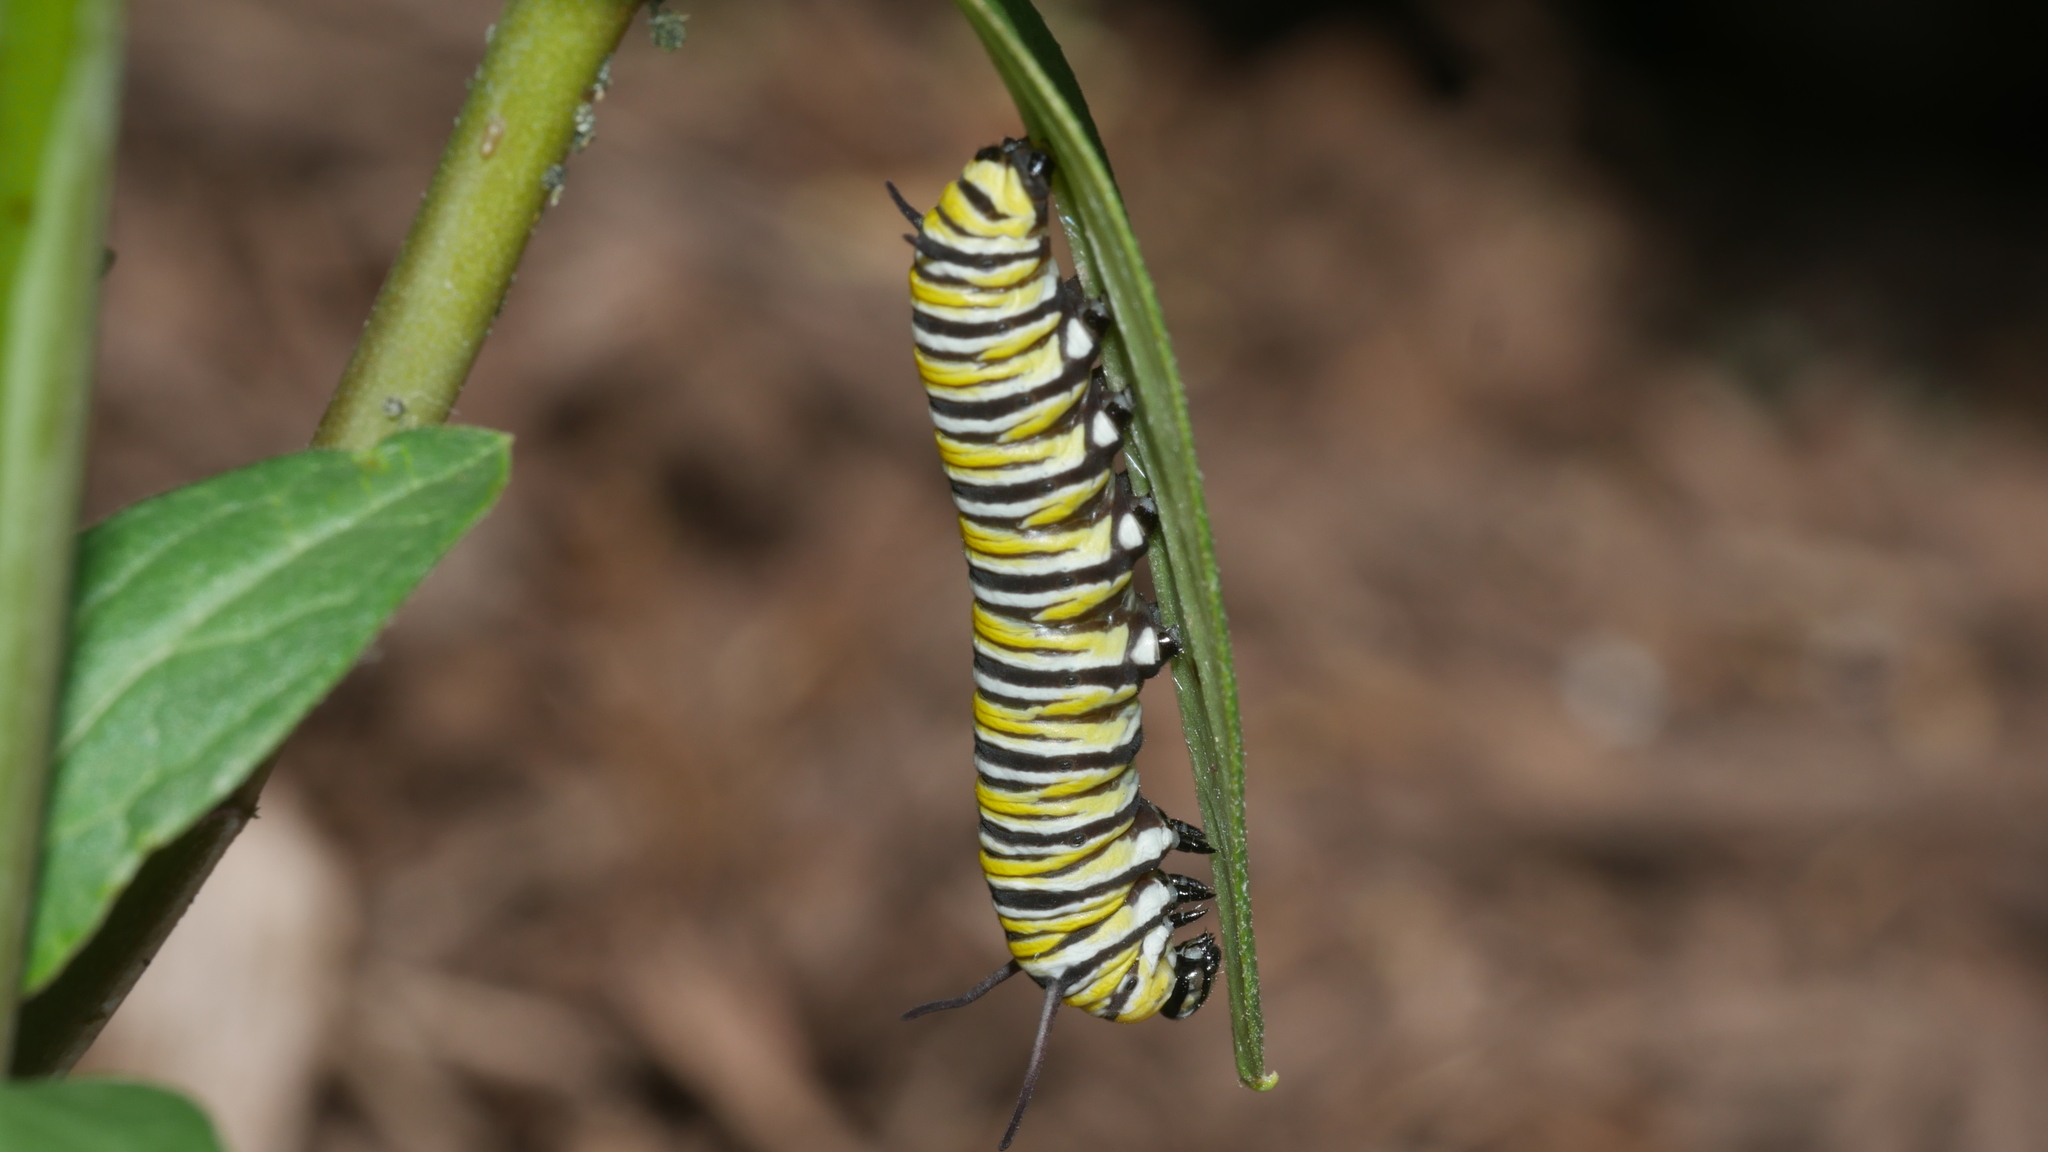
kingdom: Animalia
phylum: Arthropoda
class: Insecta
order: Lepidoptera
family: Nymphalidae
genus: Danaus
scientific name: Danaus plexippus
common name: Monarch
